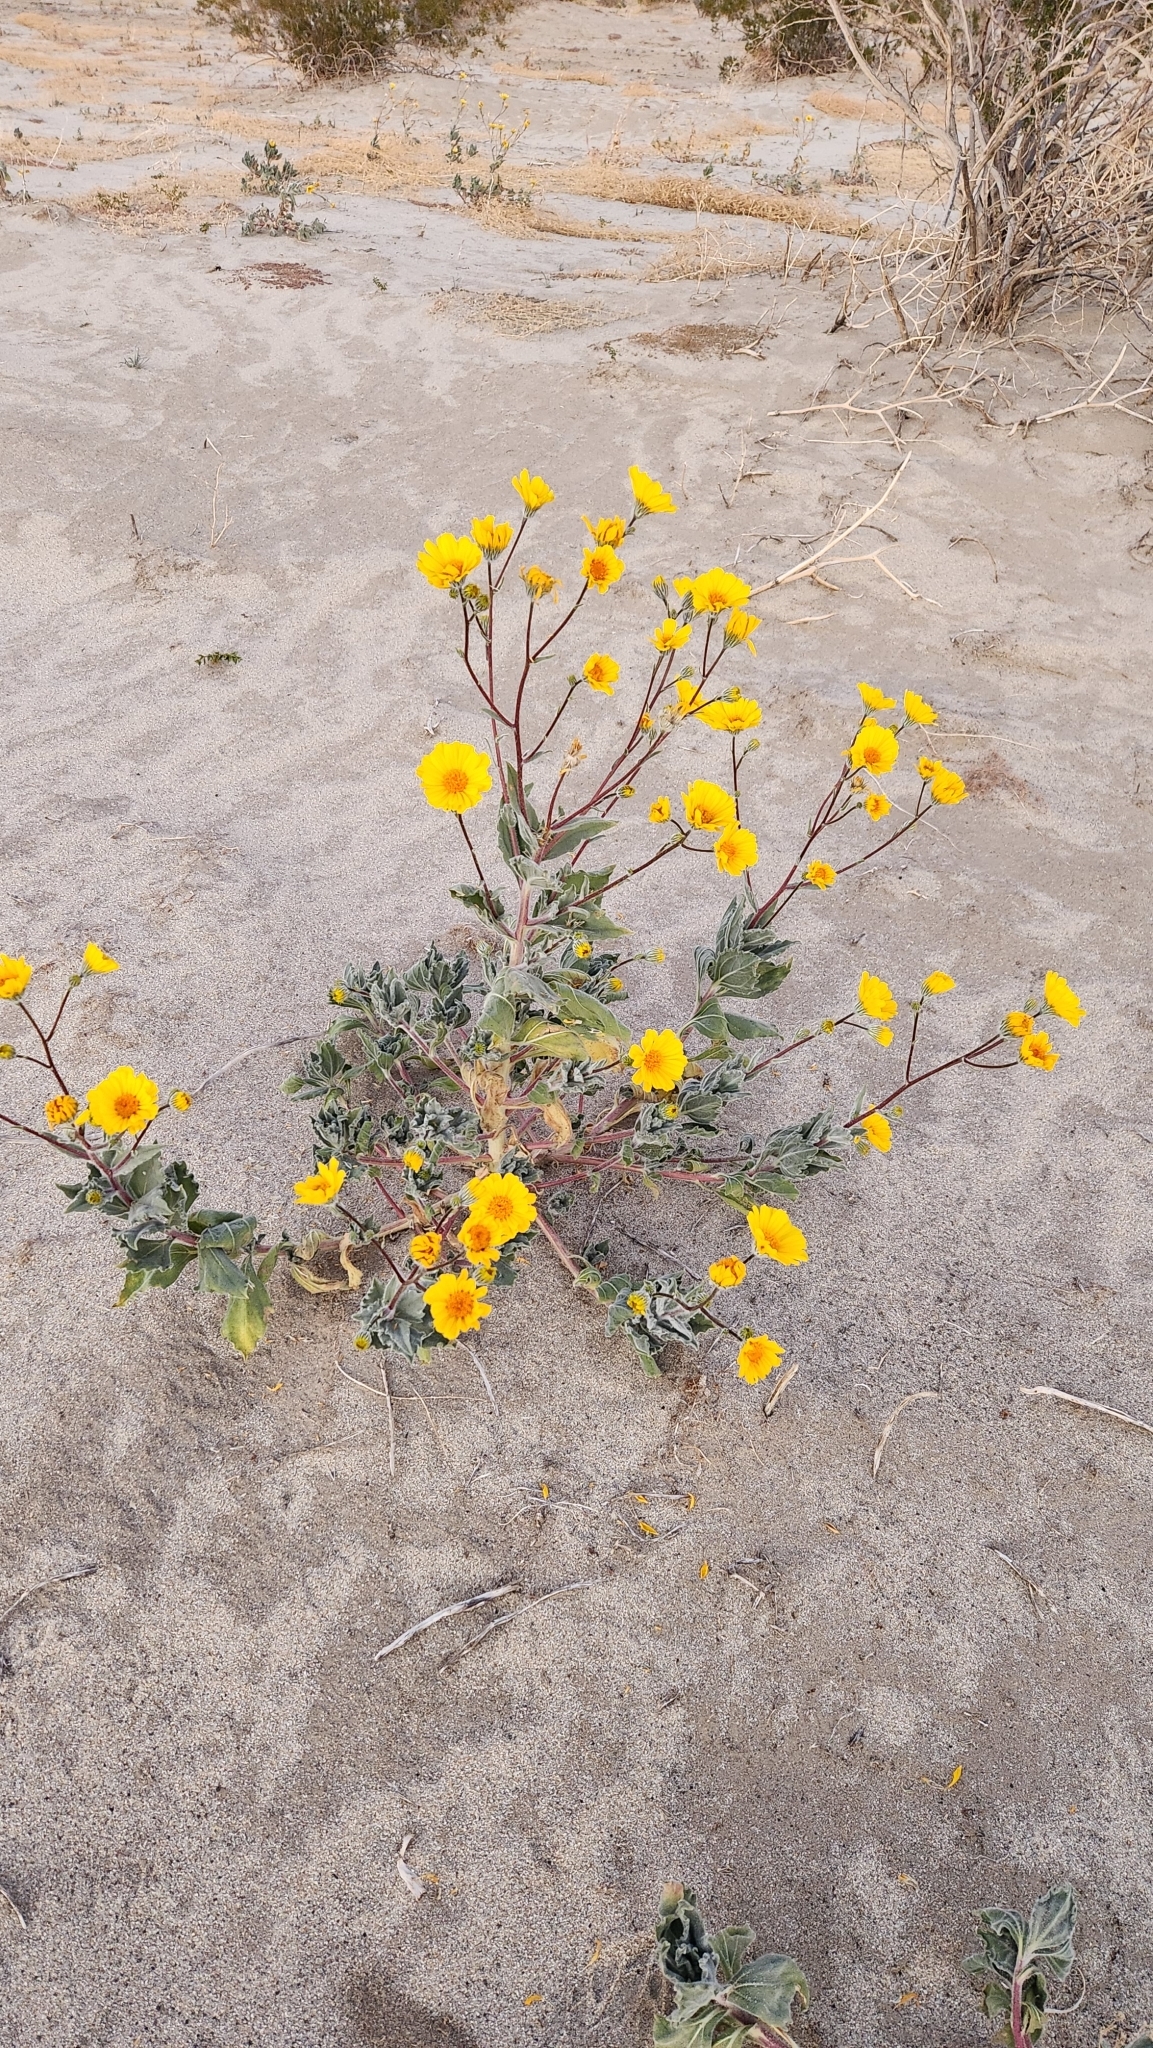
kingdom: Plantae
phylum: Tracheophyta
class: Magnoliopsida
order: Asterales
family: Asteraceae
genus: Geraea
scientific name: Geraea canescens
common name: Desert-gold
